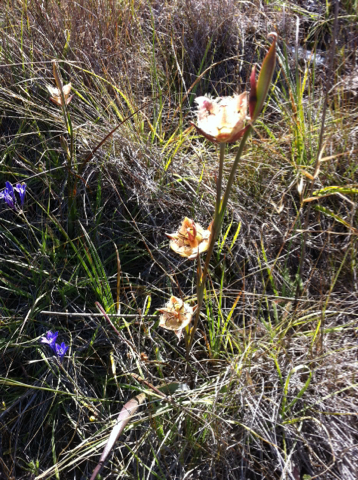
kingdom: Plantae
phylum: Tracheophyta
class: Liliopsida
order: Liliales
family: Liliaceae
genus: Calochortus
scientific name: Calochortus tiburonensis
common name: Tiburon mariposa-lily
